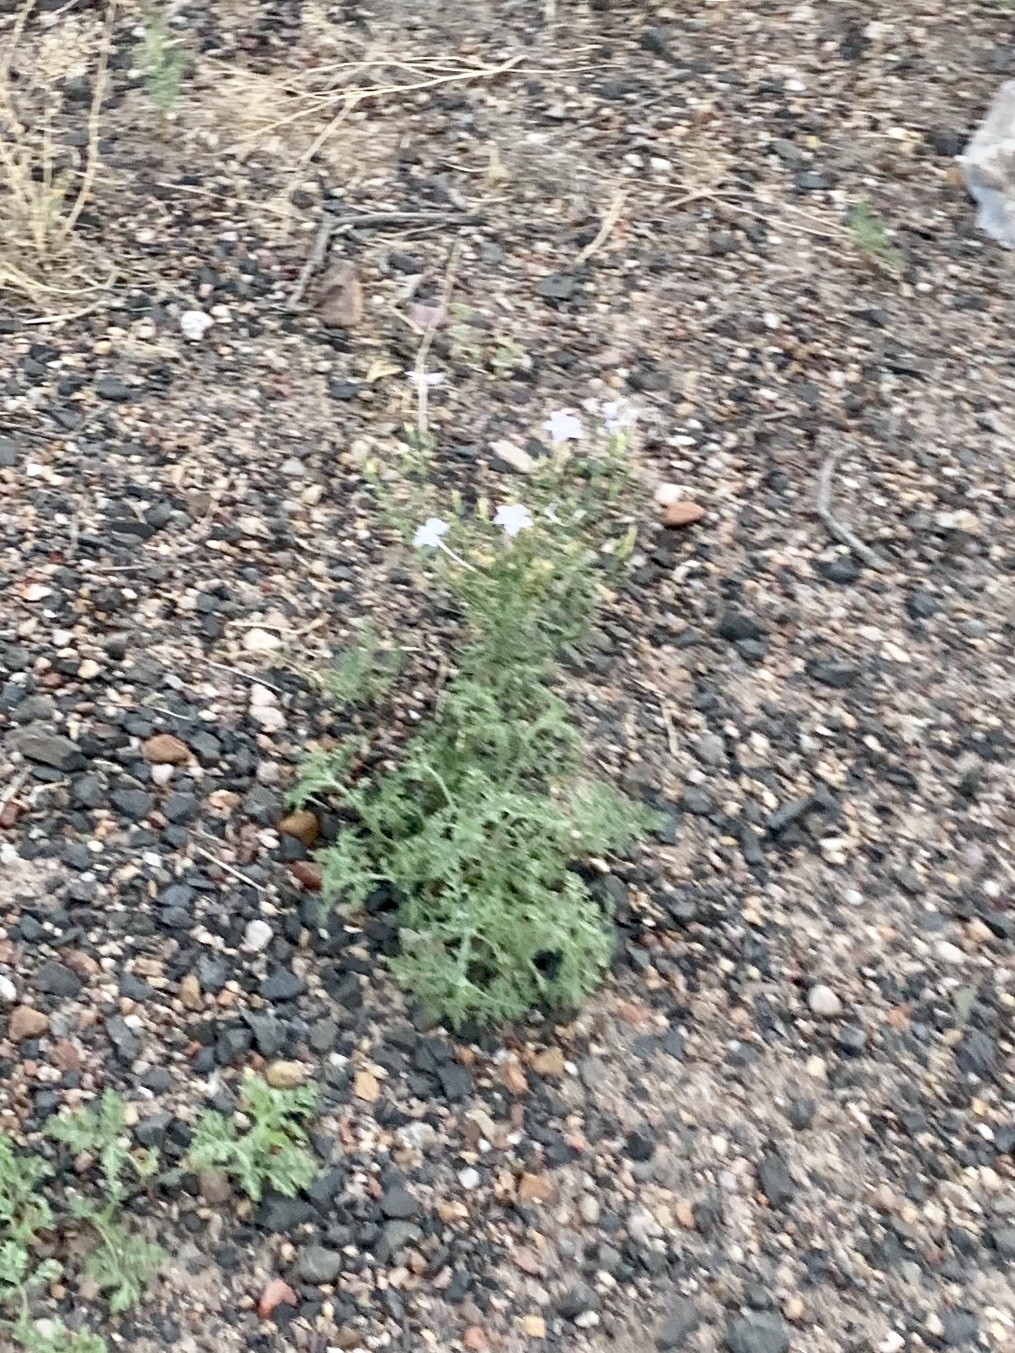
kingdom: Plantae
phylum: Tracheophyta
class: Magnoliopsida
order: Ericales
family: Polemoniaceae
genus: Ipomopsis
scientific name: Ipomopsis longiflora
